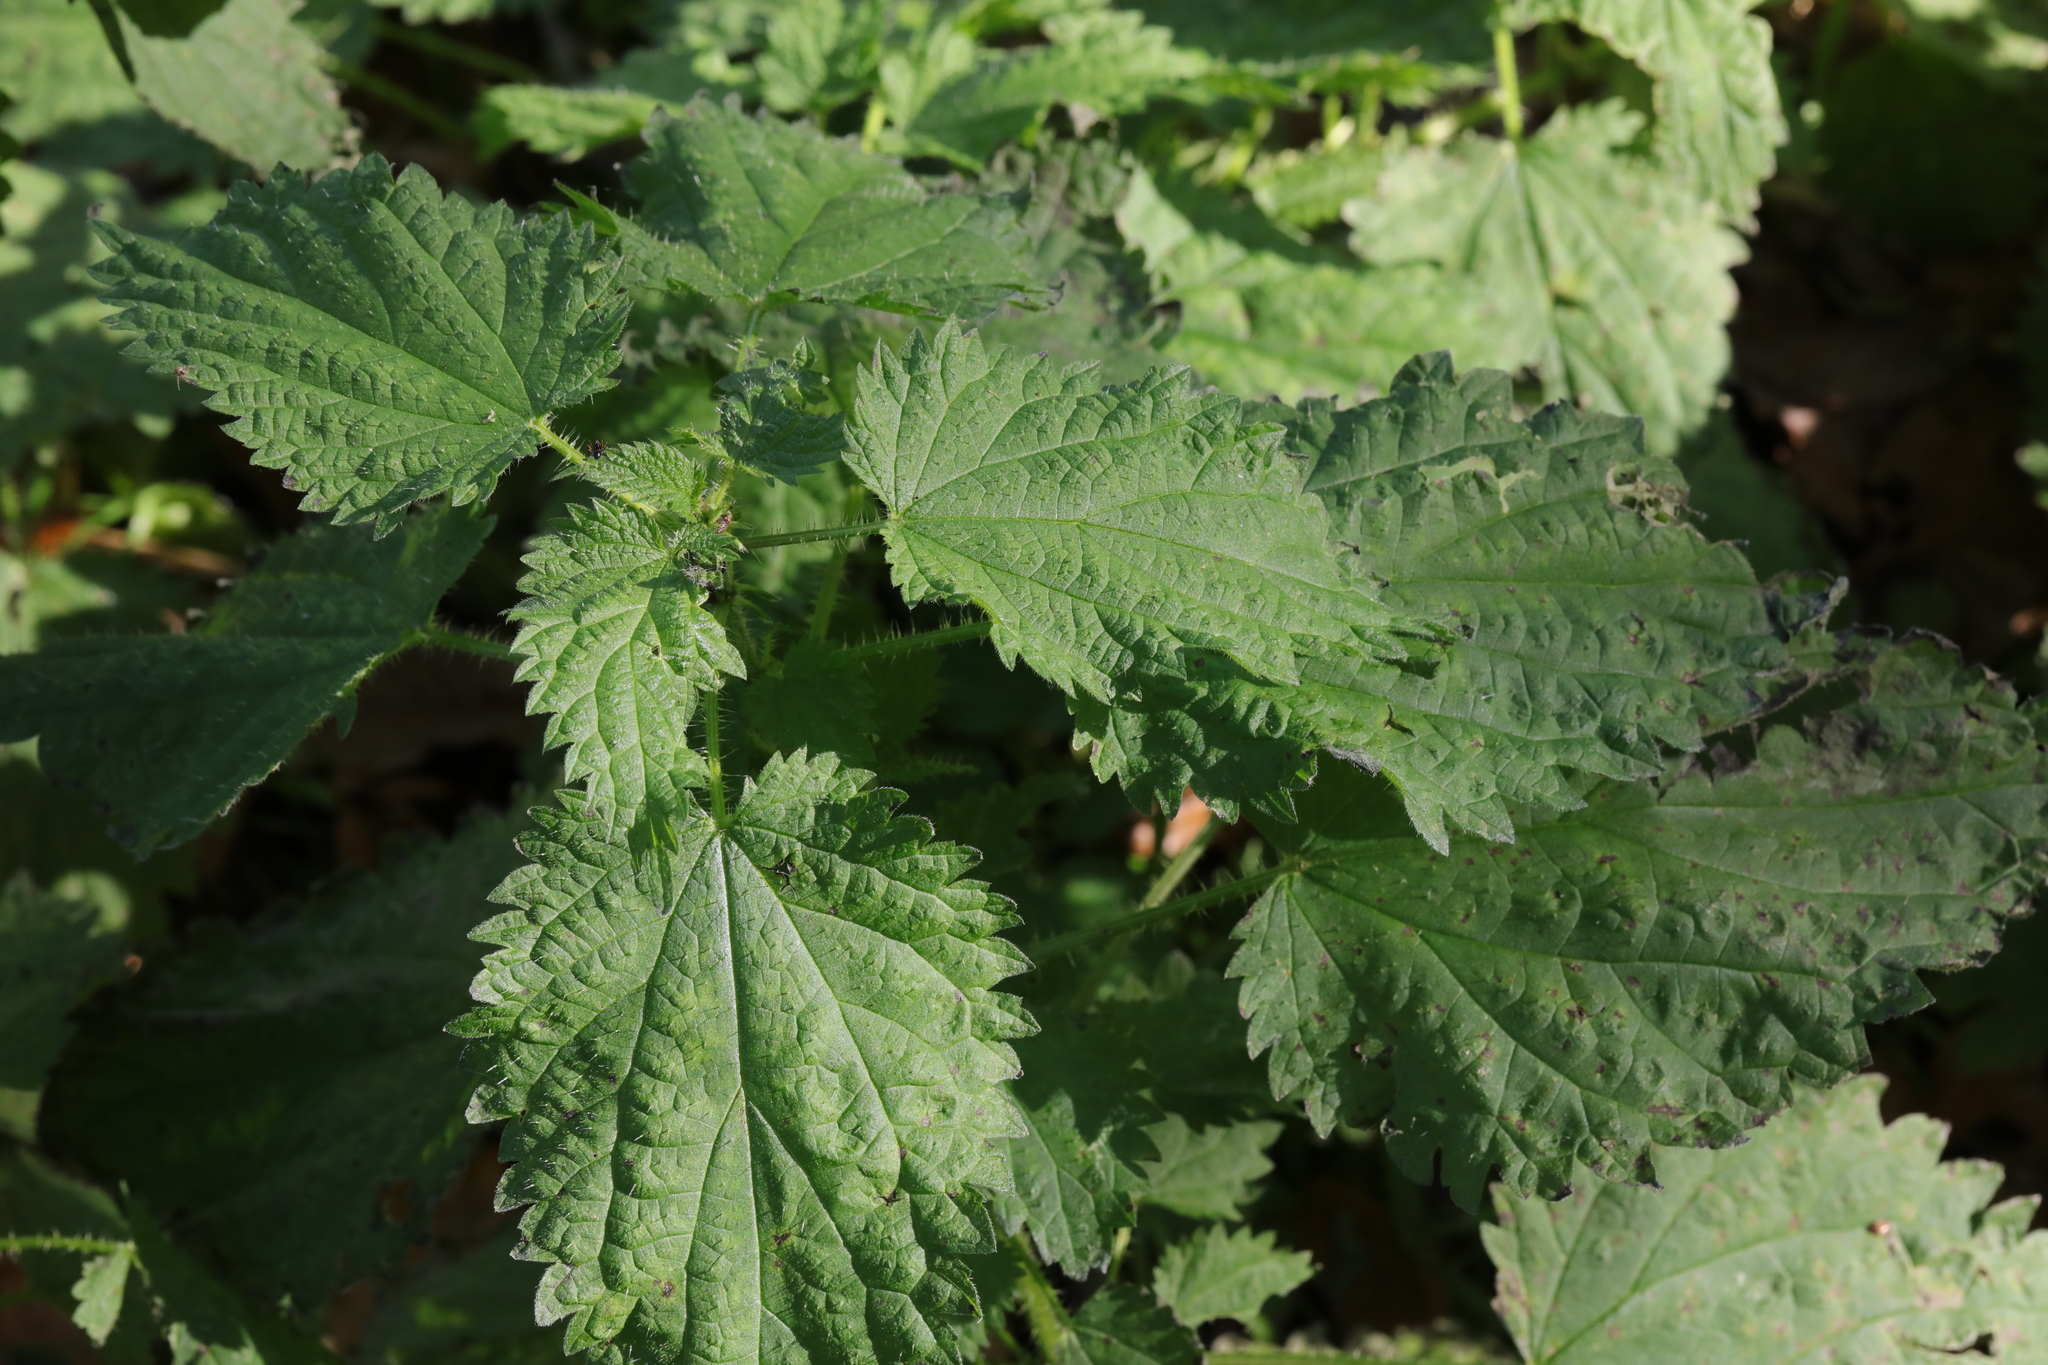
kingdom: Plantae
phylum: Tracheophyta
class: Magnoliopsida
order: Rosales
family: Urticaceae
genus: Urtica
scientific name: Urtica dioica
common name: Common nettle
